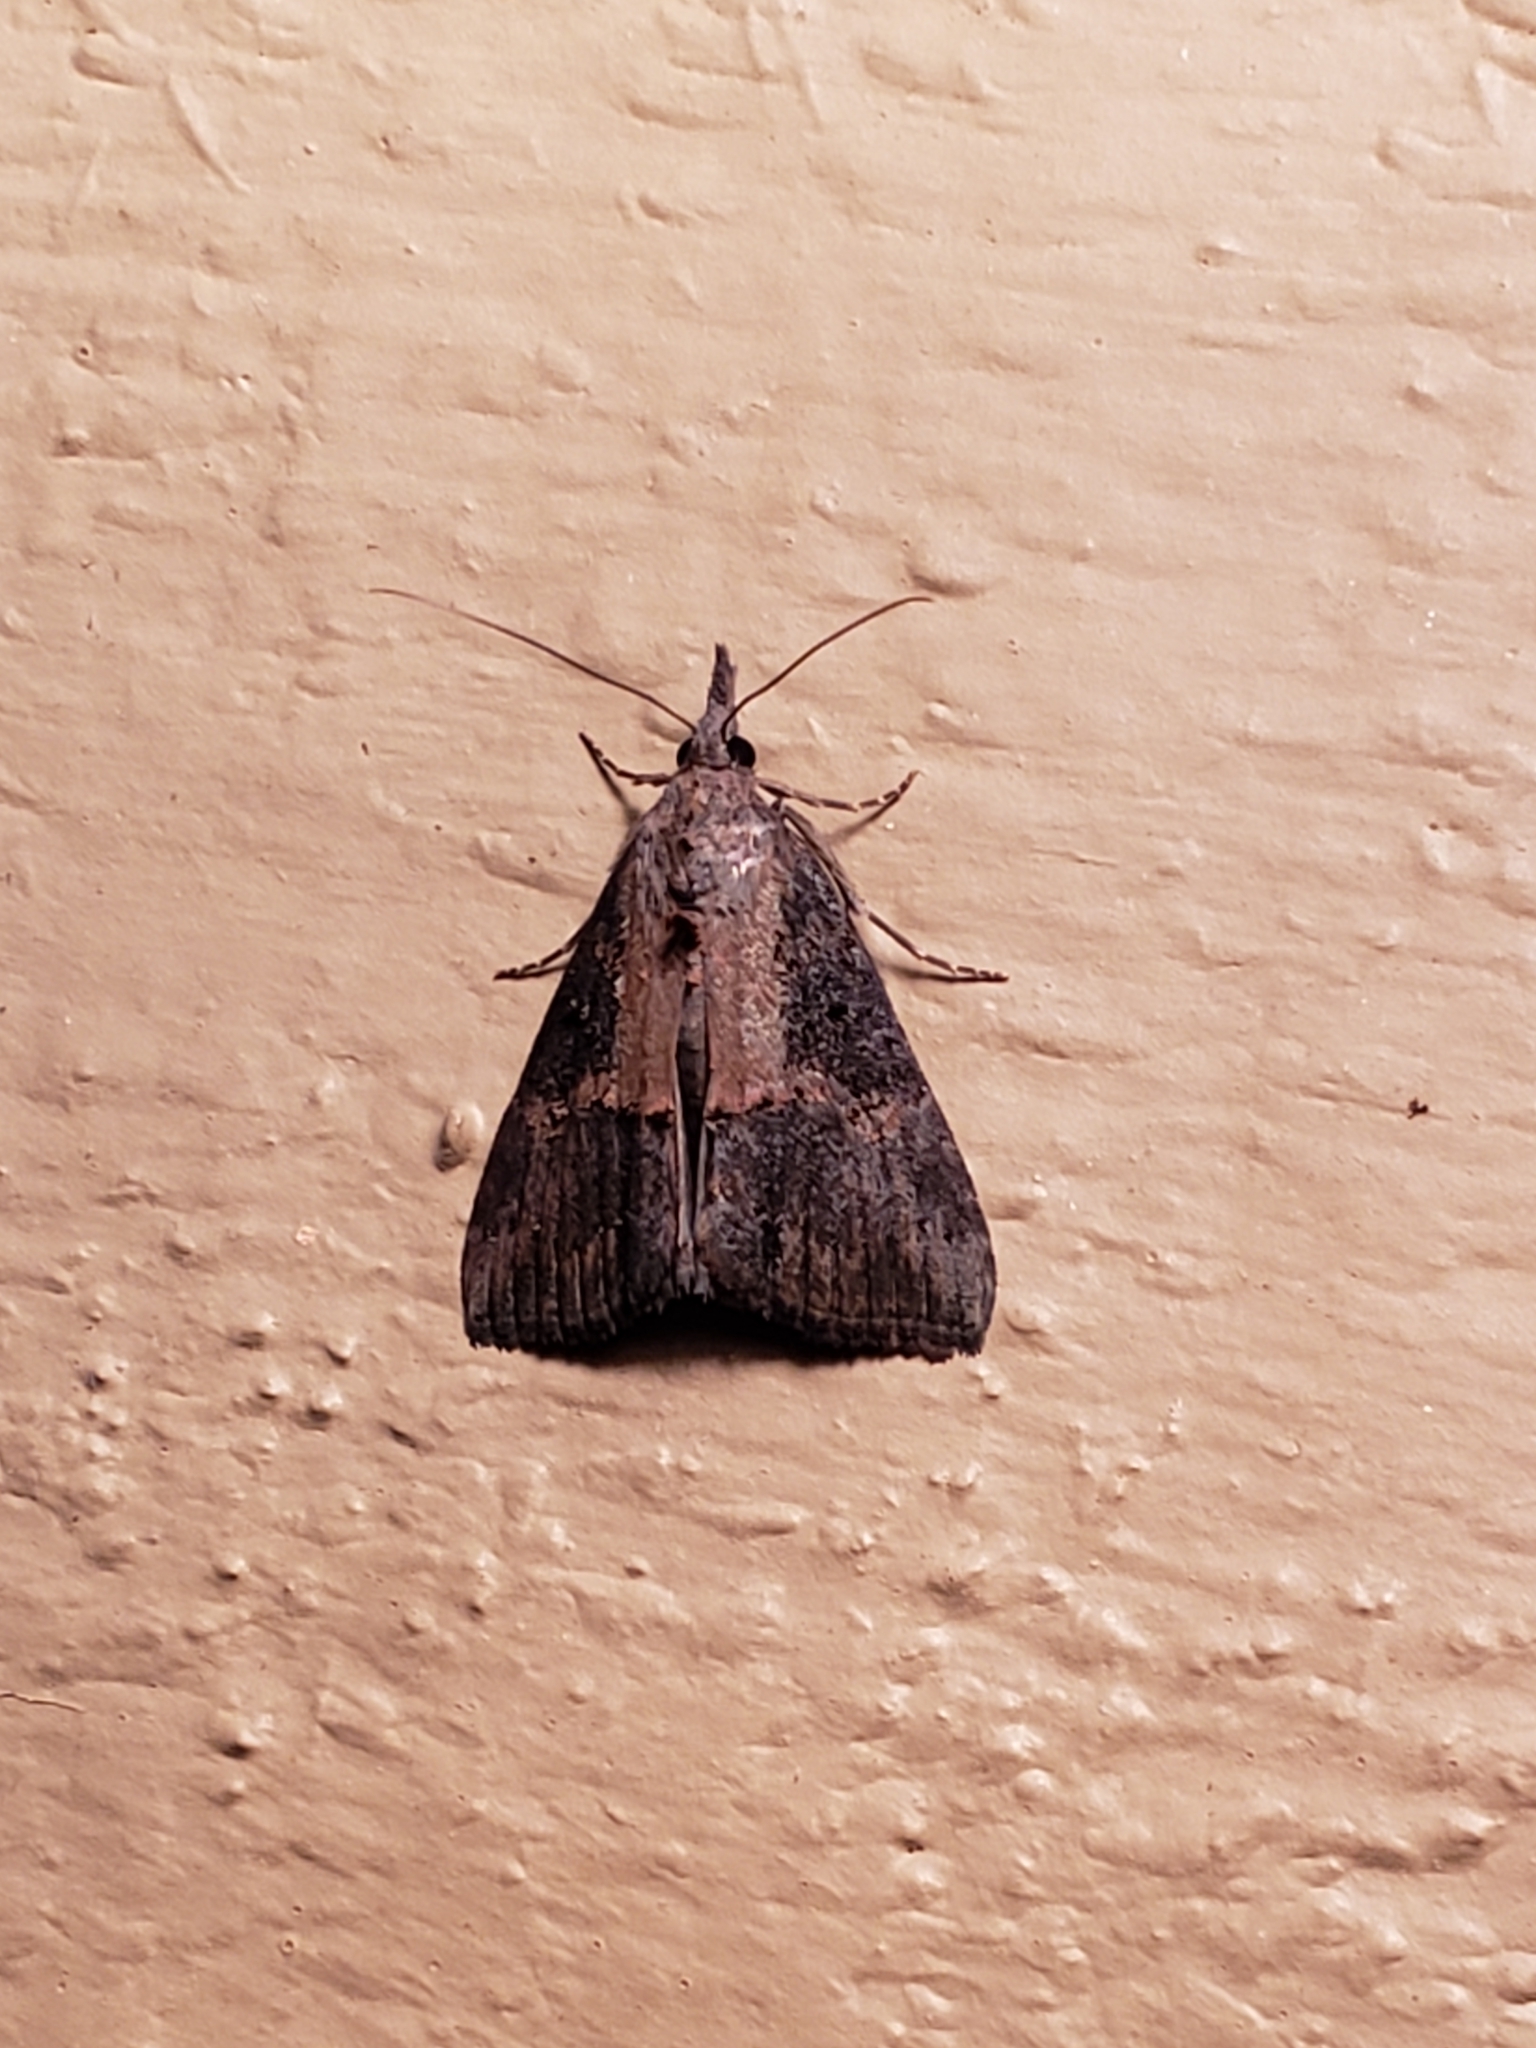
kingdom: Animalia
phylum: Arthropoda
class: Insecta
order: Lepidoptera
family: Erebidae
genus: Hypena
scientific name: Hypena scabra
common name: Green cloverworm
